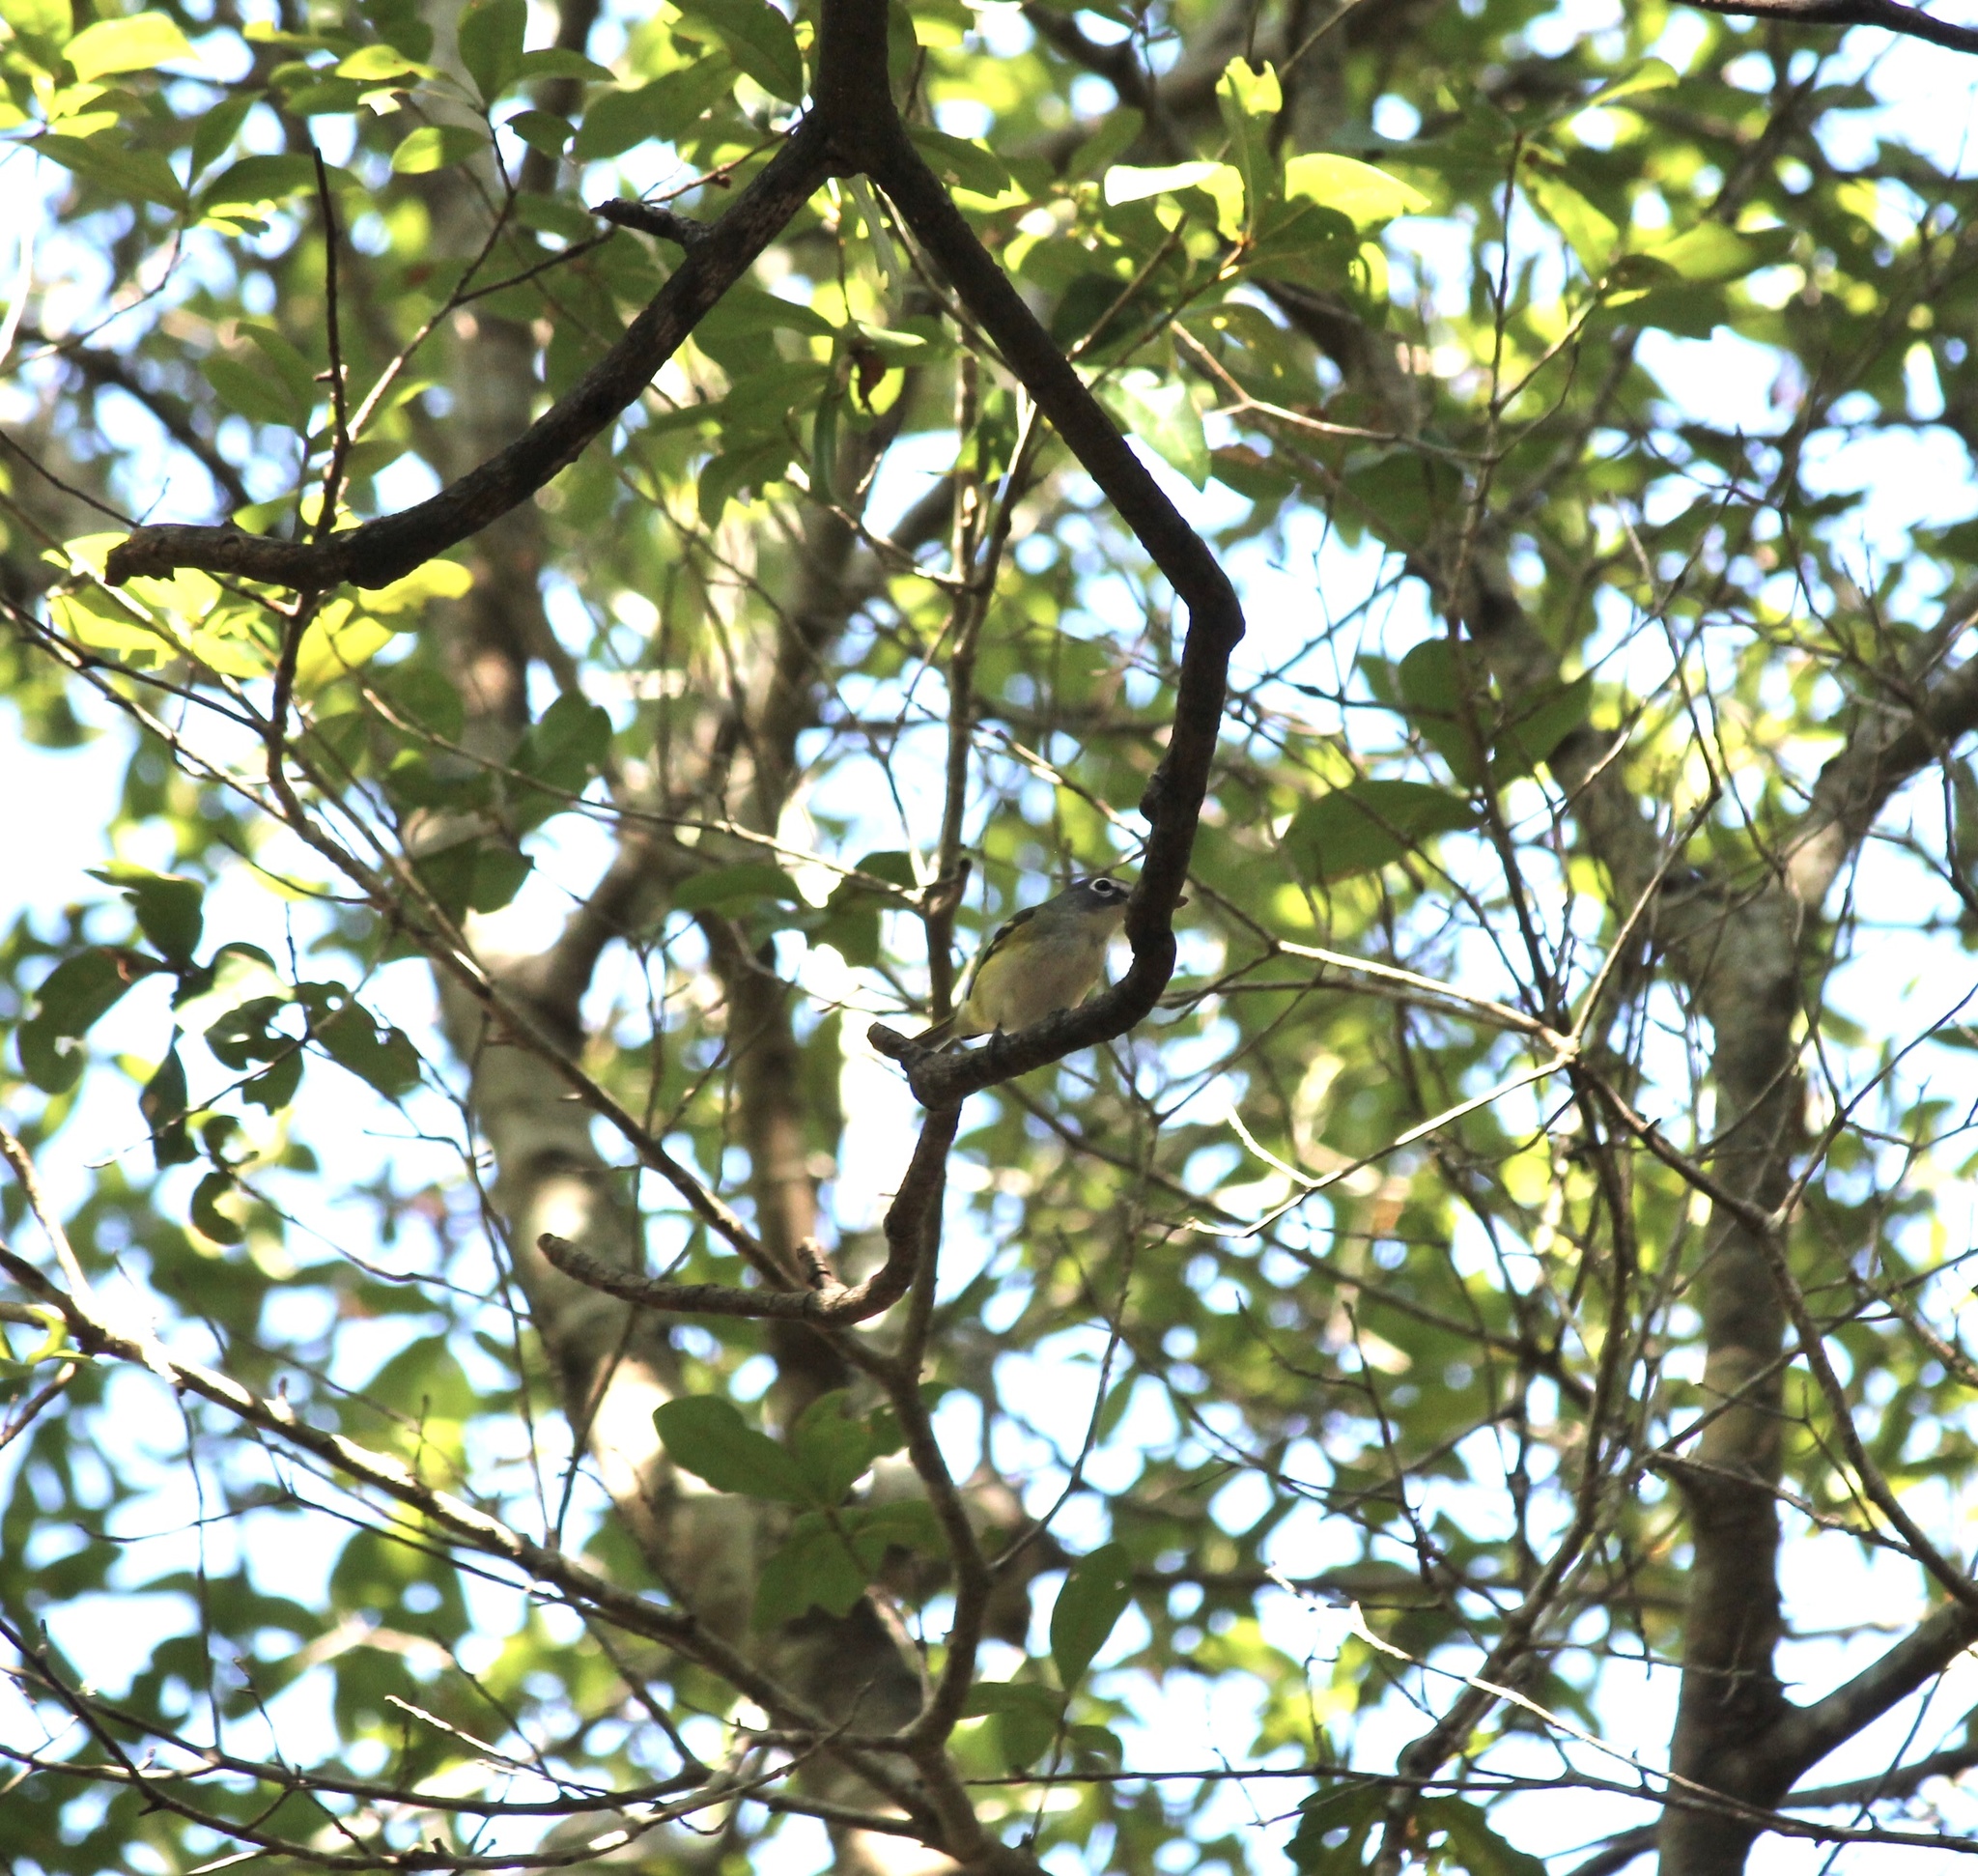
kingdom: Animalia
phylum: Chordata
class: Aves
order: Passeriformes
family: Vireonidae
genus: Vireo
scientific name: Vireo solitarius
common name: Blue-headed vireo
